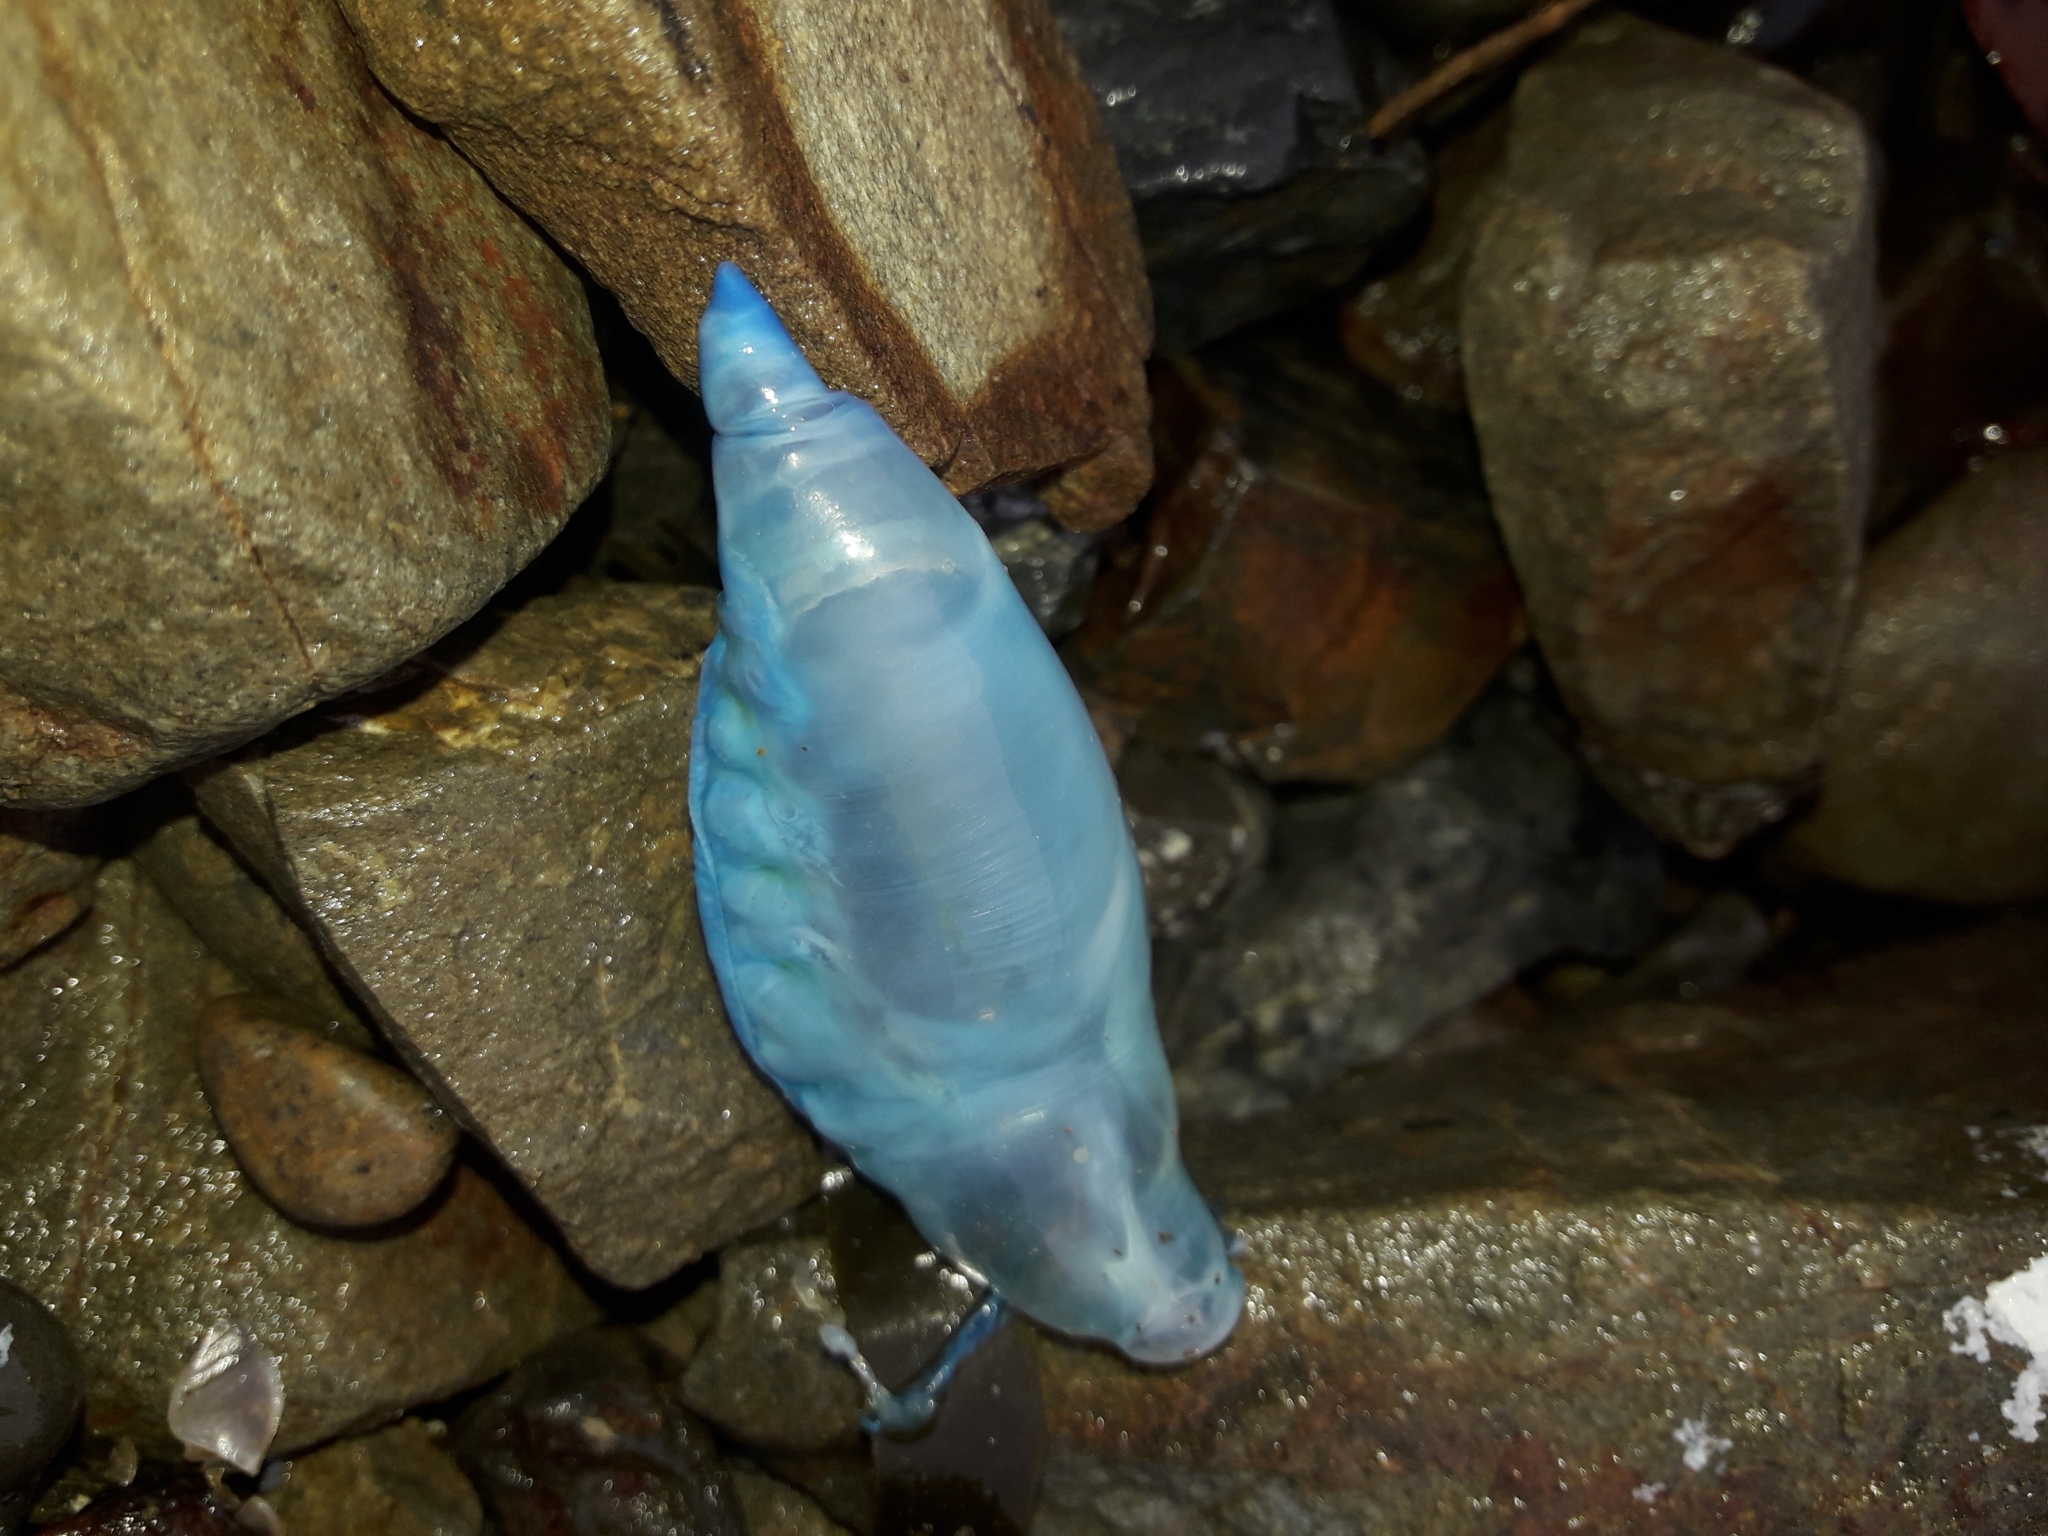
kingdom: Animalia
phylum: Cnidaria
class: Hydrozoa
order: Siphonophorae
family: Physaliidae
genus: Physalia
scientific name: Physalia physalis
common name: Portuguese man-of-war
